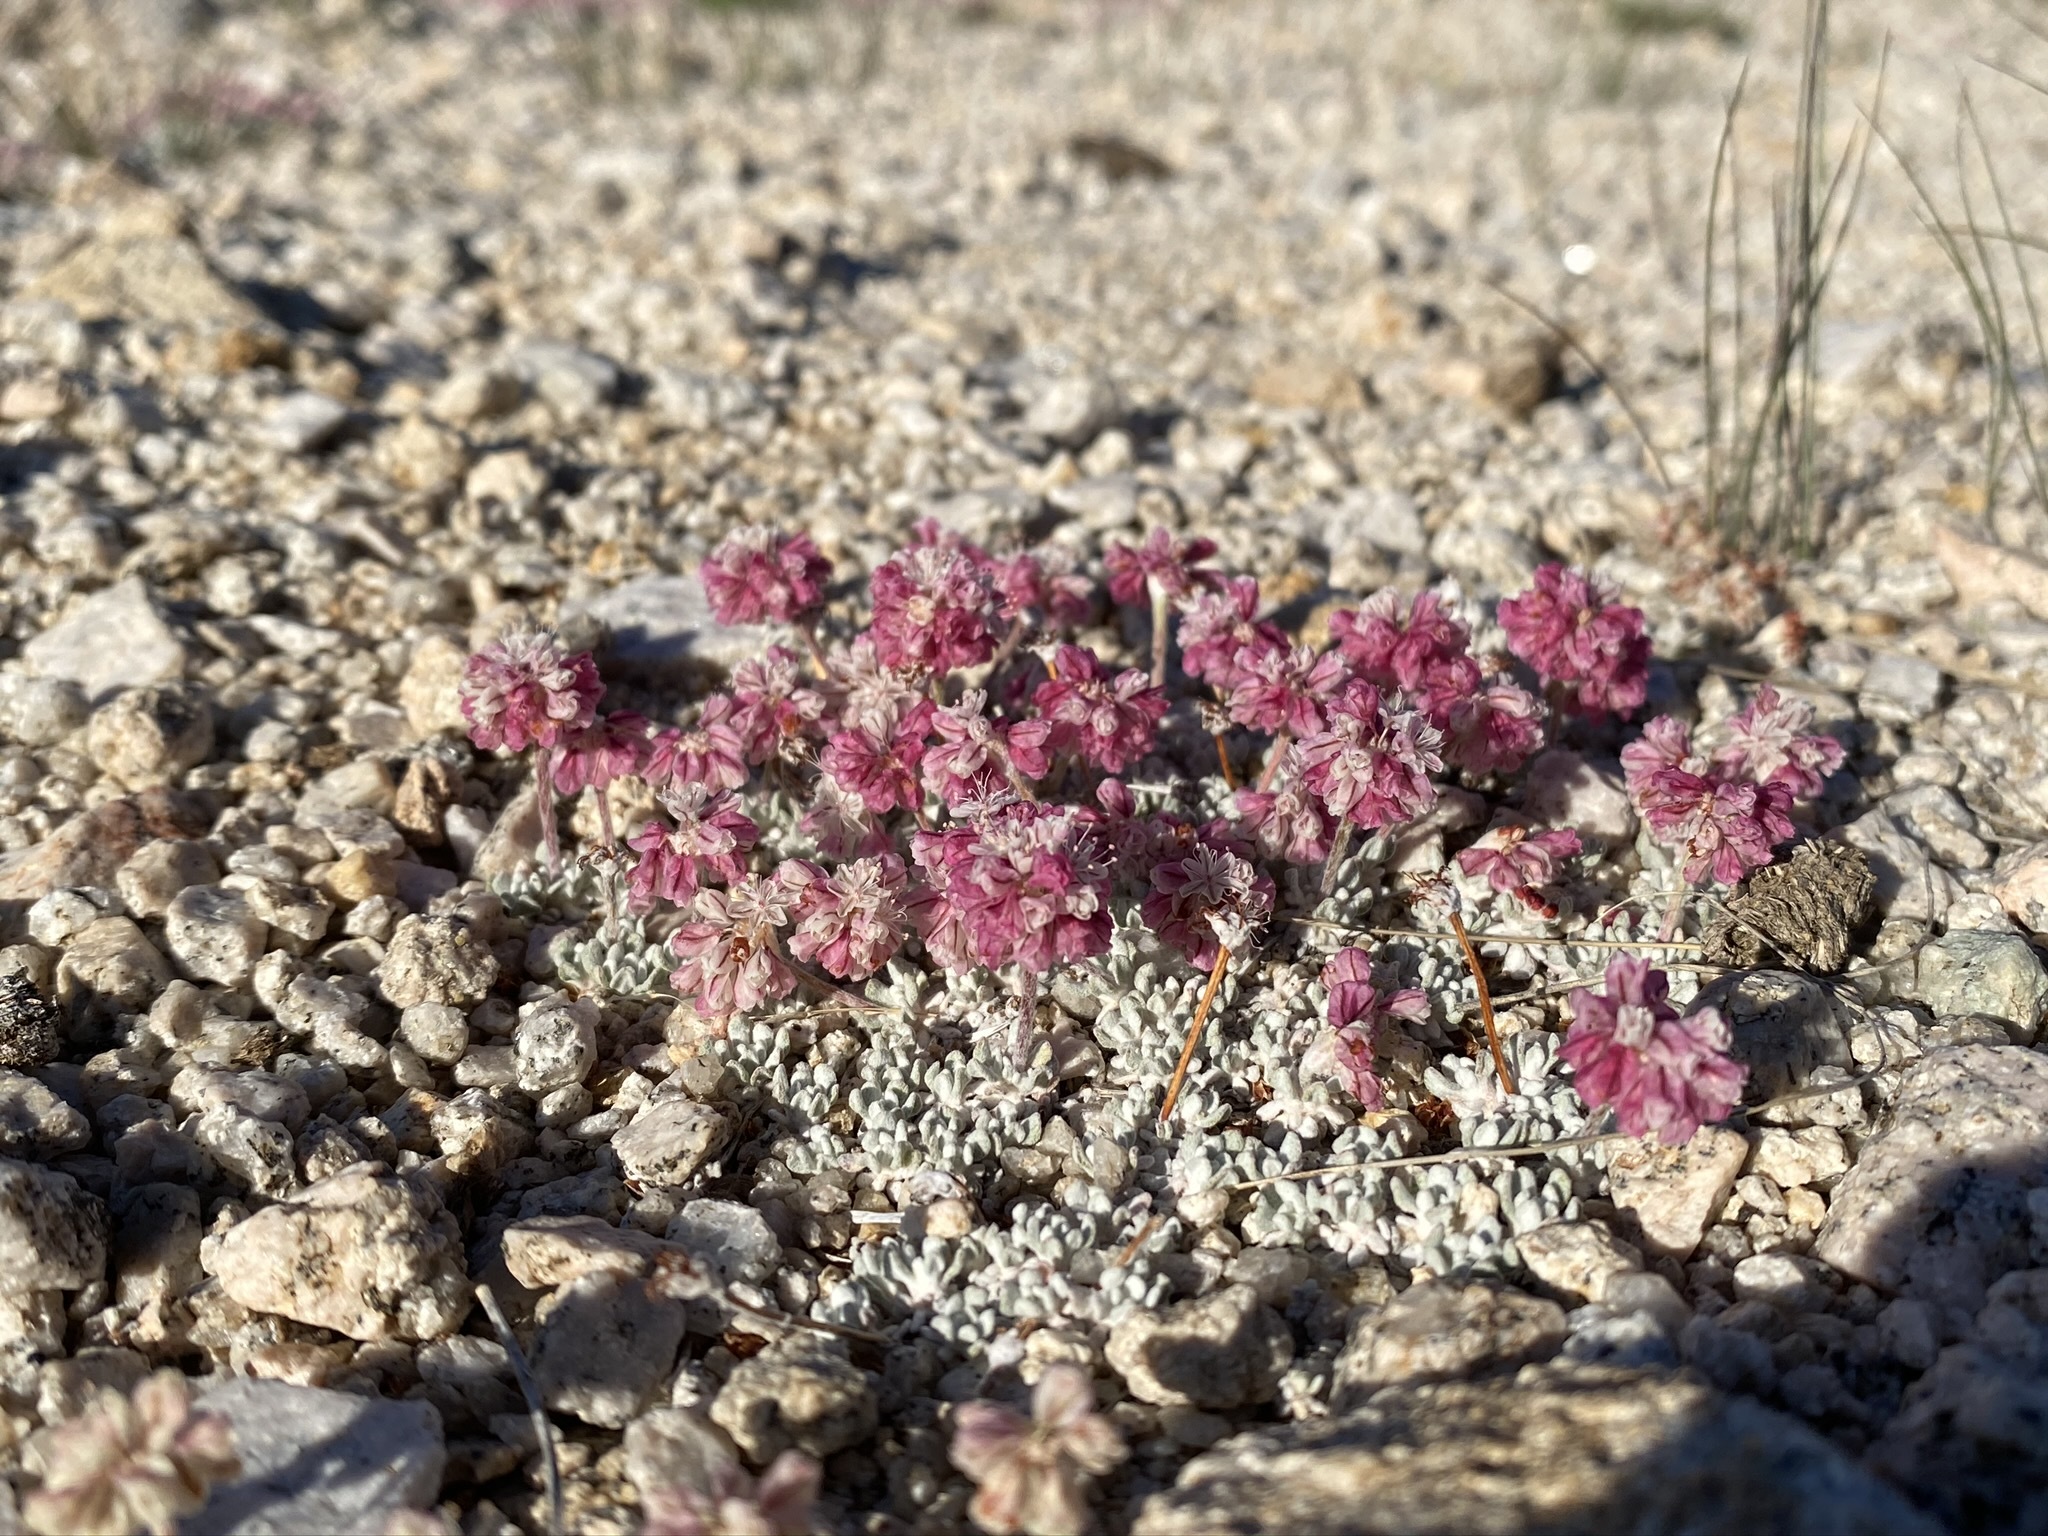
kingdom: Plantae
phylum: Tracheophyta
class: Magnoliopsida
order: Caryophyllales
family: Polygonaceae
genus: Eriogonum
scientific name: Eriogonum ovalifolium
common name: Cushion buckwheat
